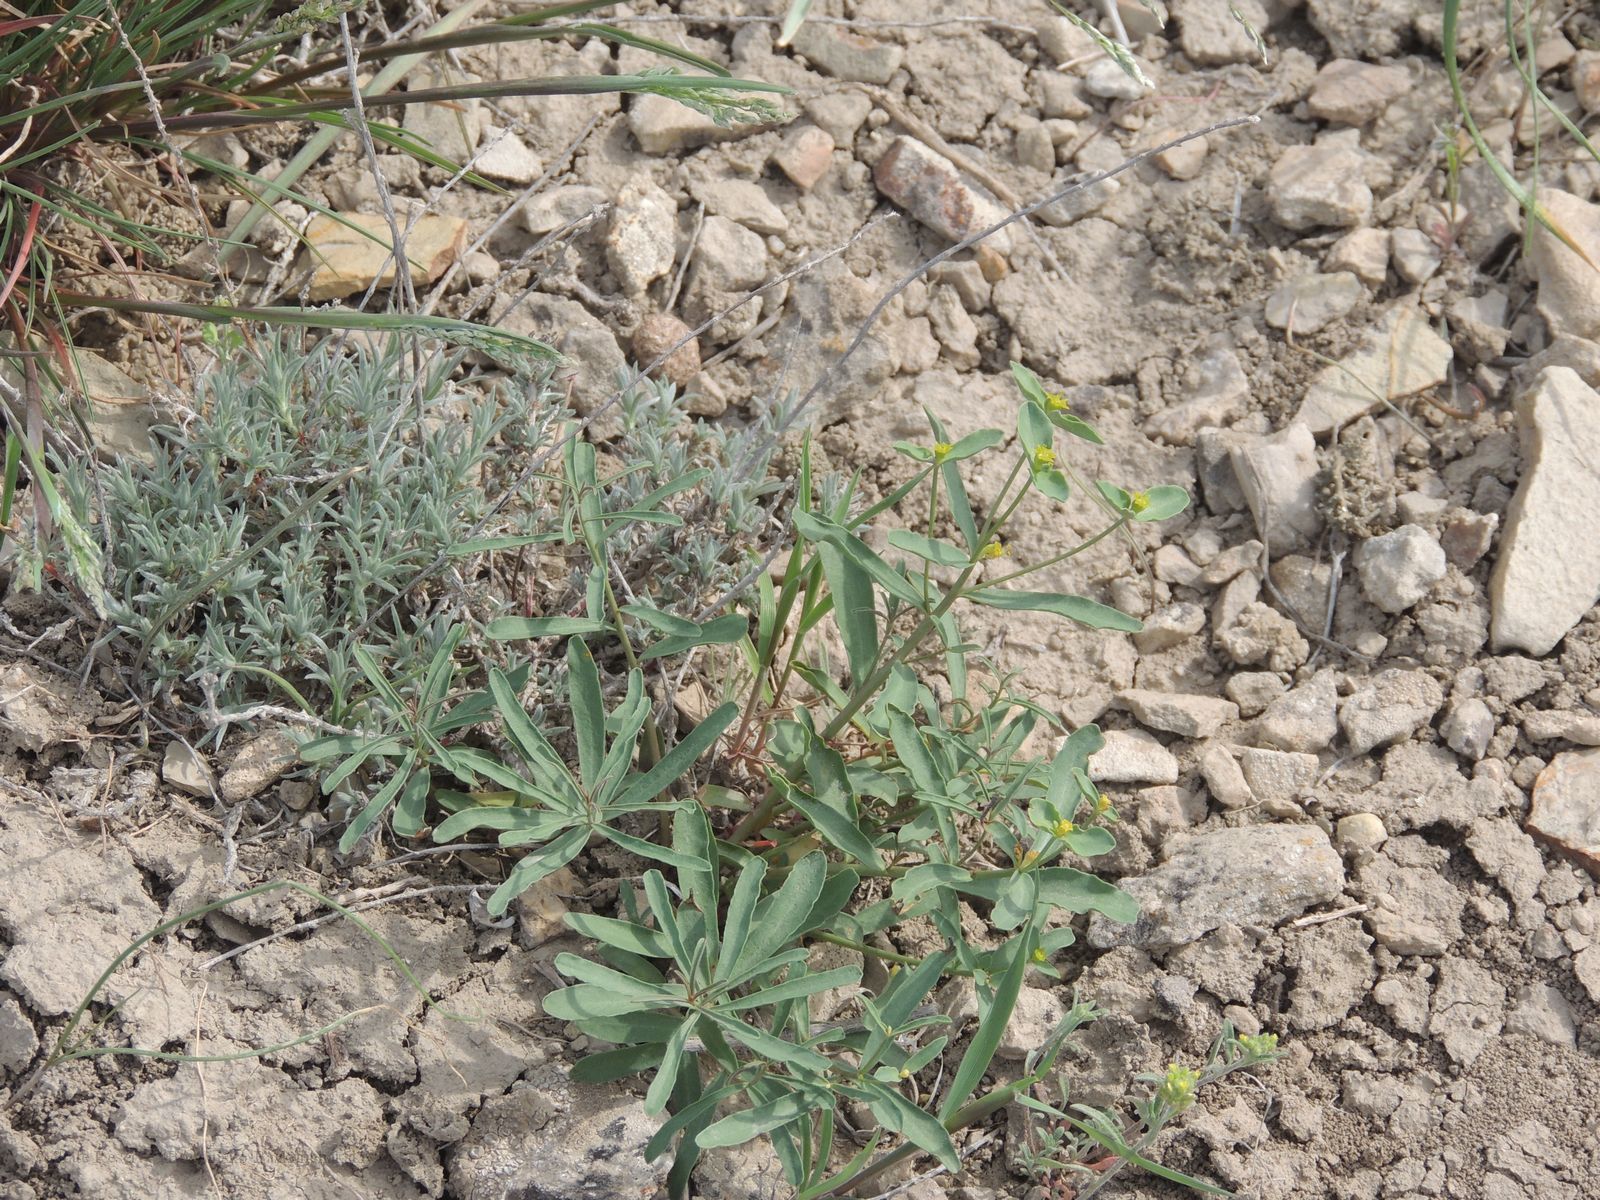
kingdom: Plantae
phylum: Tracheophyta
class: Magnoliopsida
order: Malpighiales
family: Euphorbiaceae
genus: Euphorbia
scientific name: Euphorbia praecox
